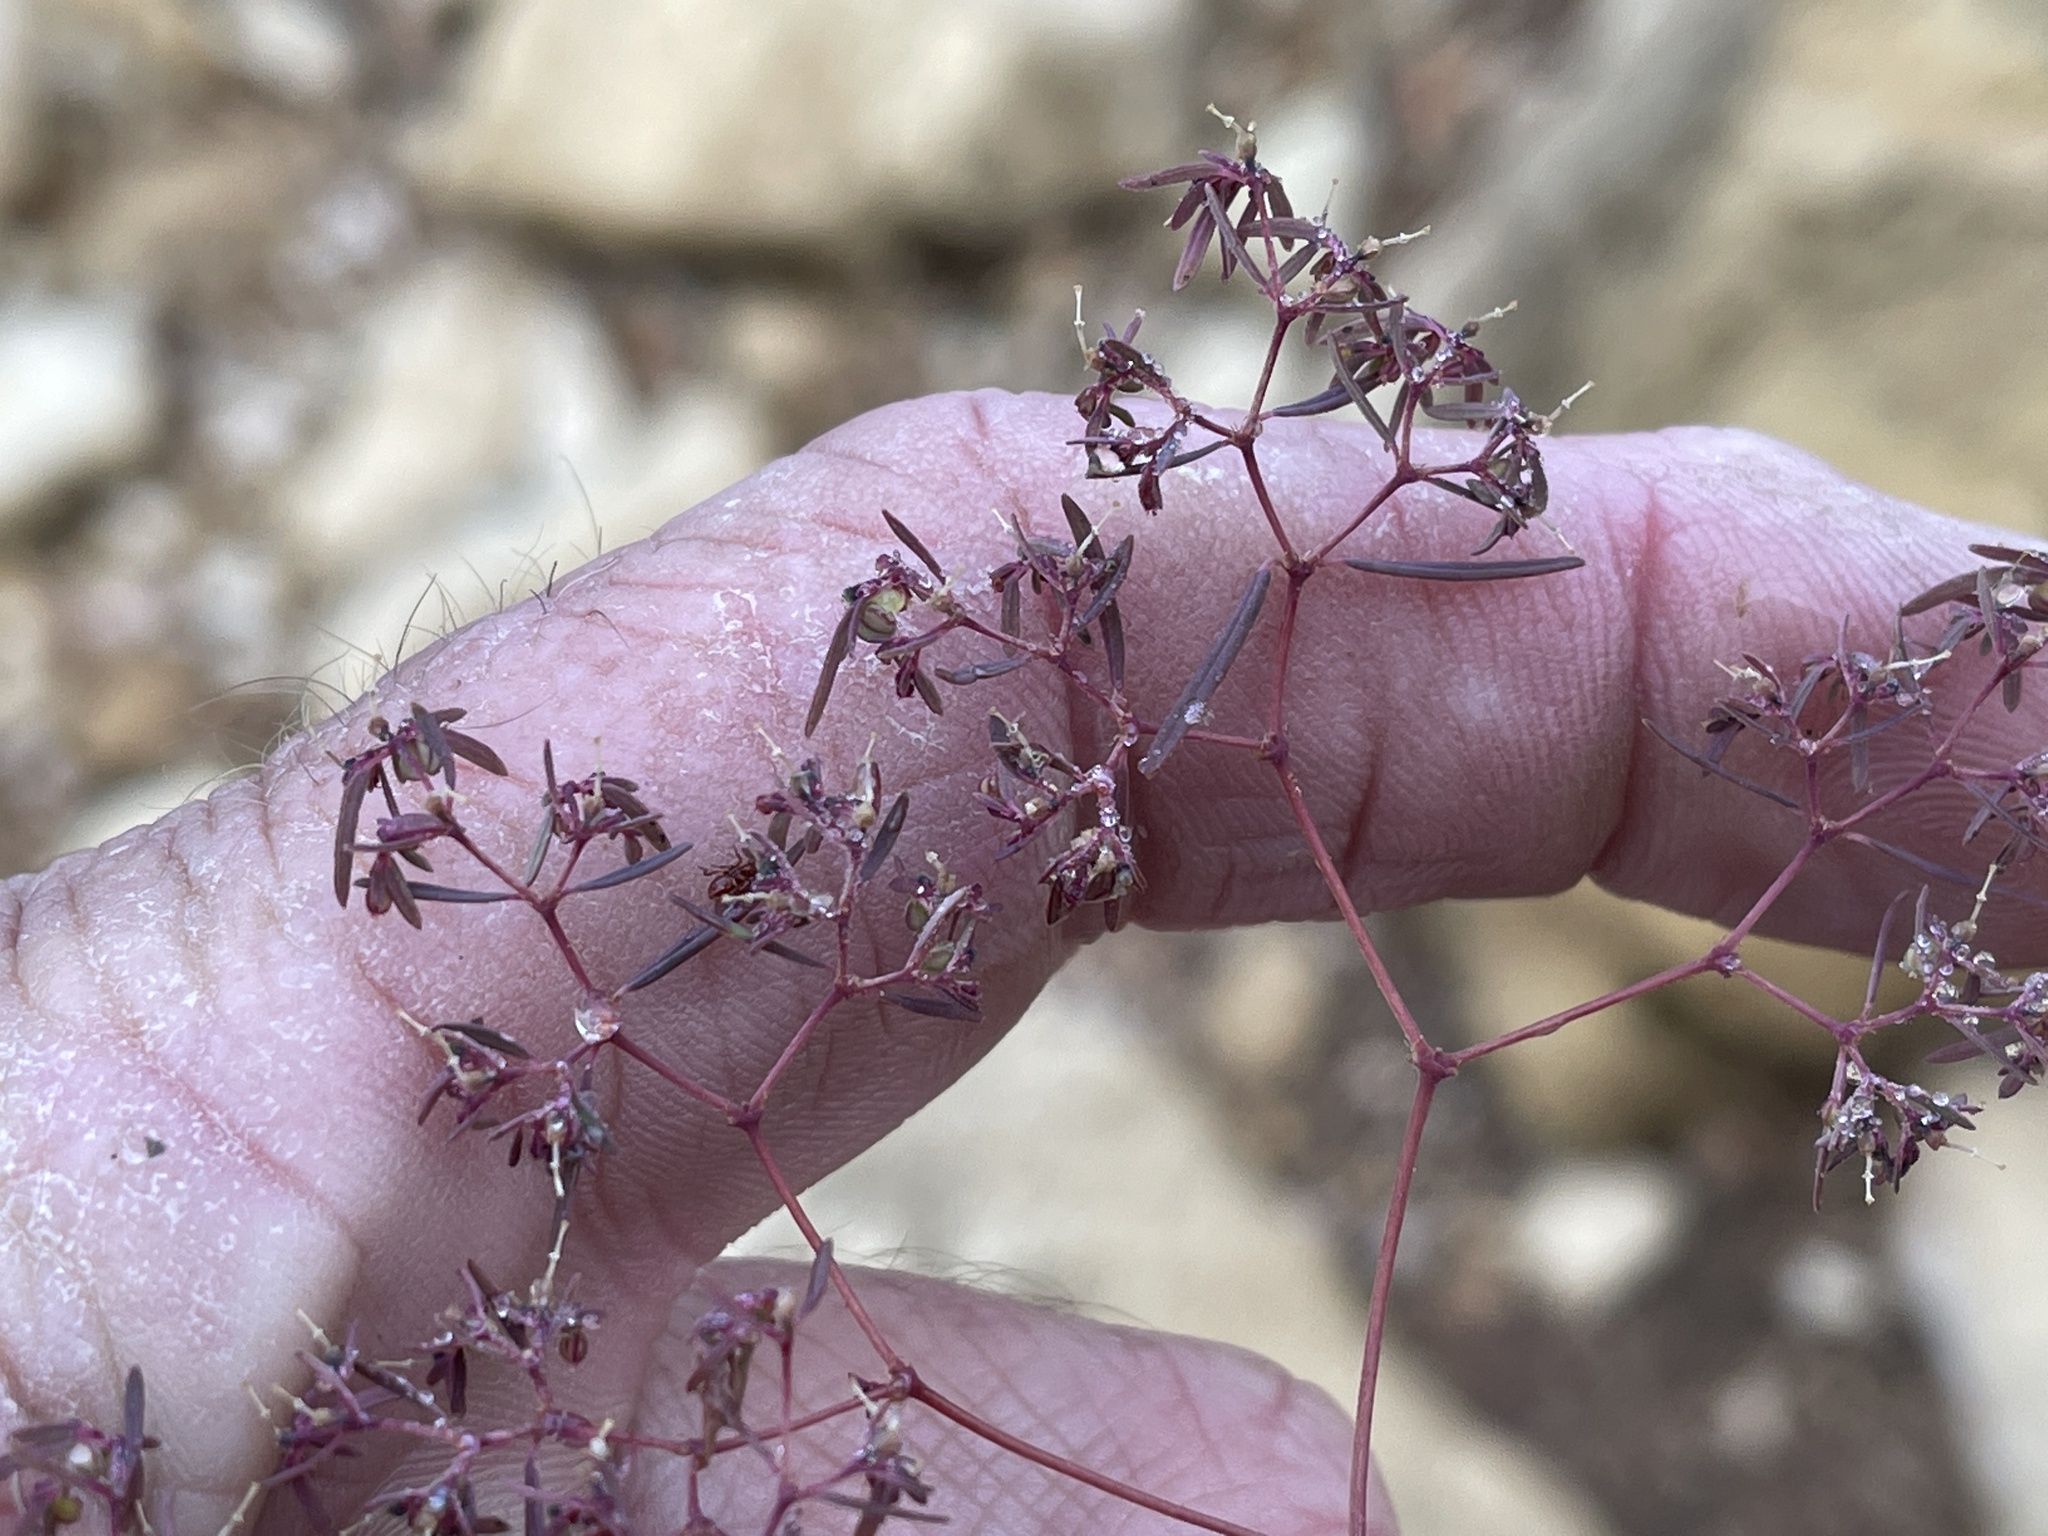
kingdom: Plantae
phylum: Tracheophyta
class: Magnoliopsida
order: Malpighiales
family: Euphorbiaceae
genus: Euphorbia
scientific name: Euphorbia revoluta
